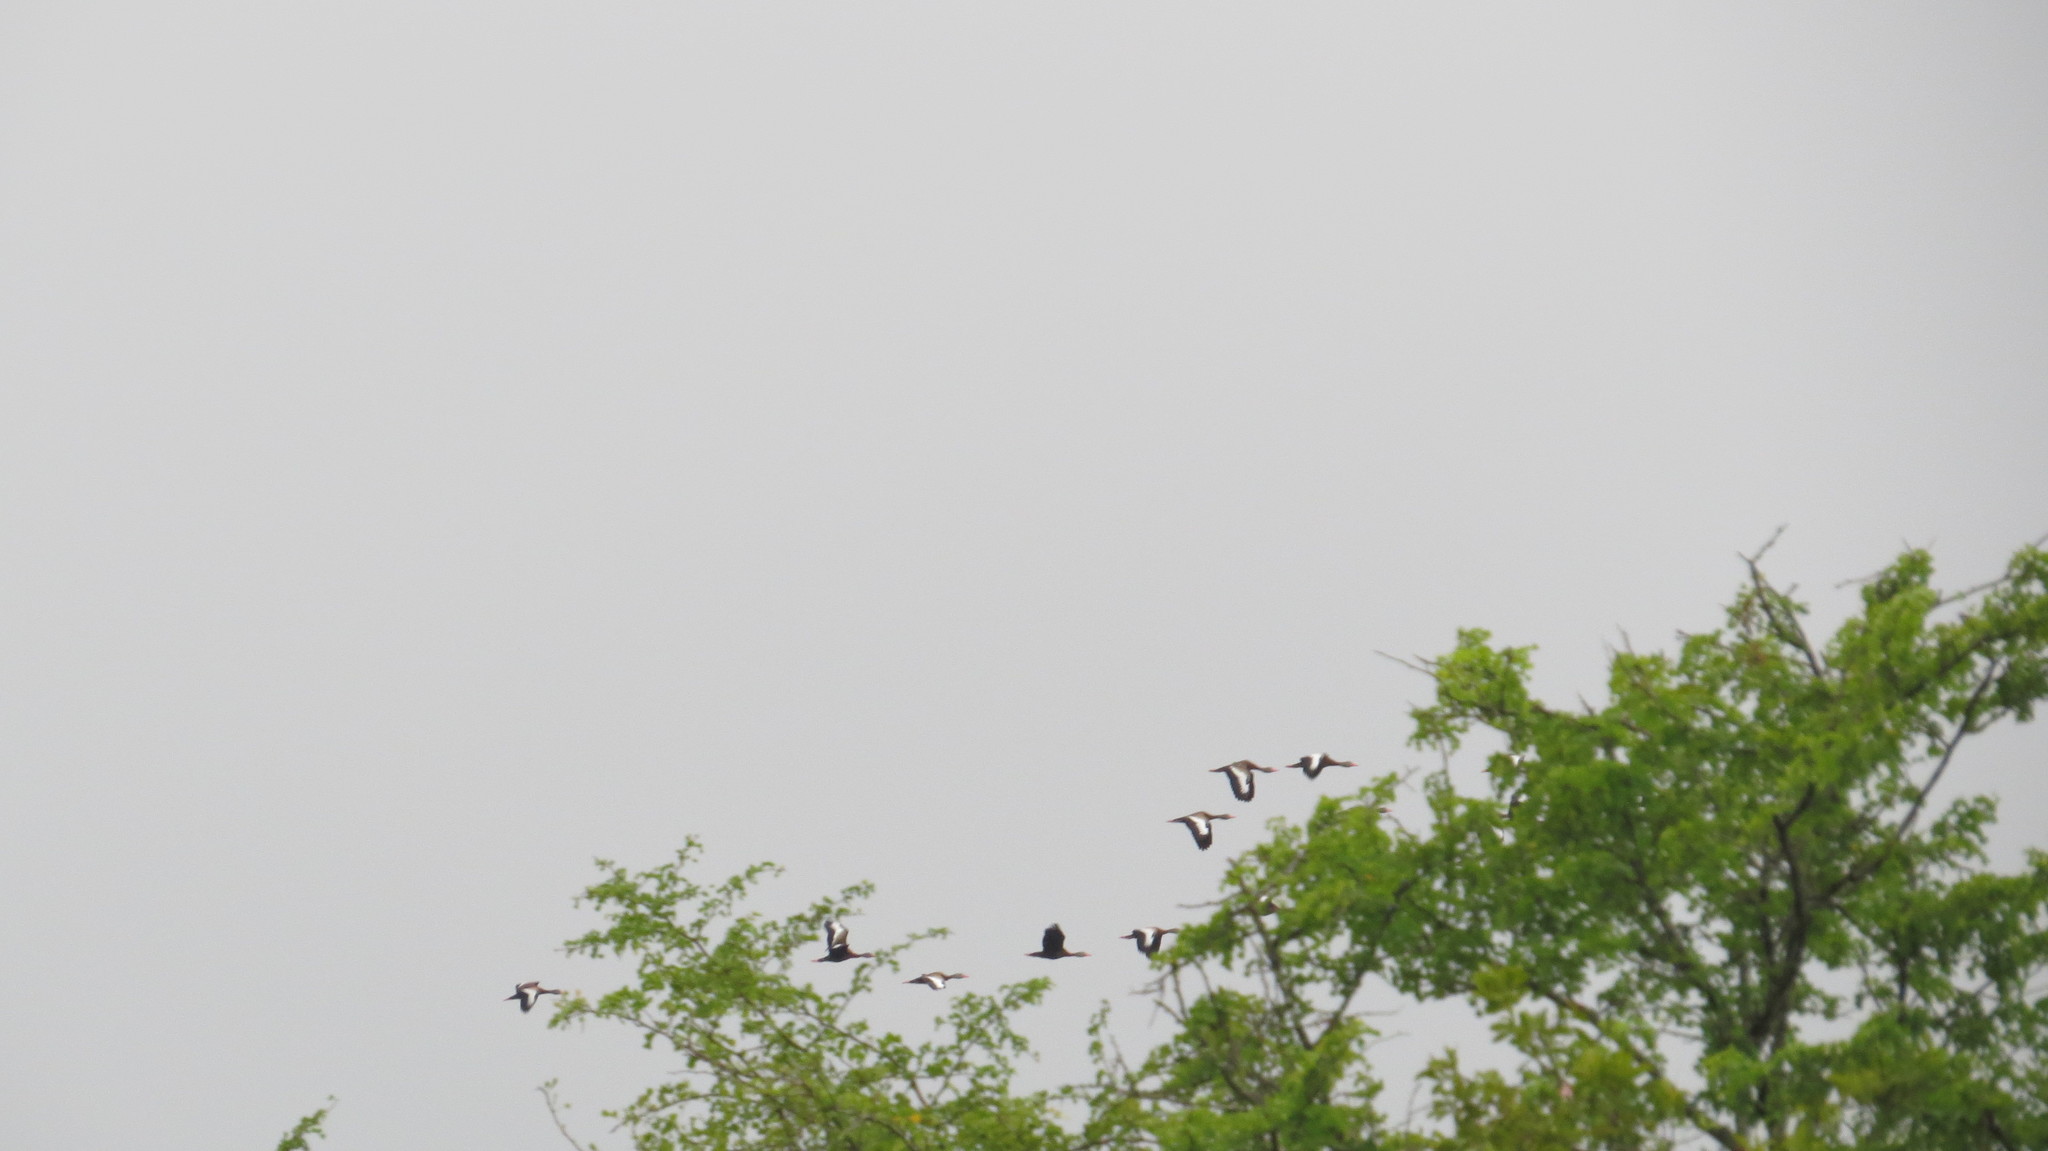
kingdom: Animalia
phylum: Chordata
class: Aves
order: Anseriformes
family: Anatidae
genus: Dendrocygna
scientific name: Dendrocygna autumnalis
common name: Black-bellied whistling duck
